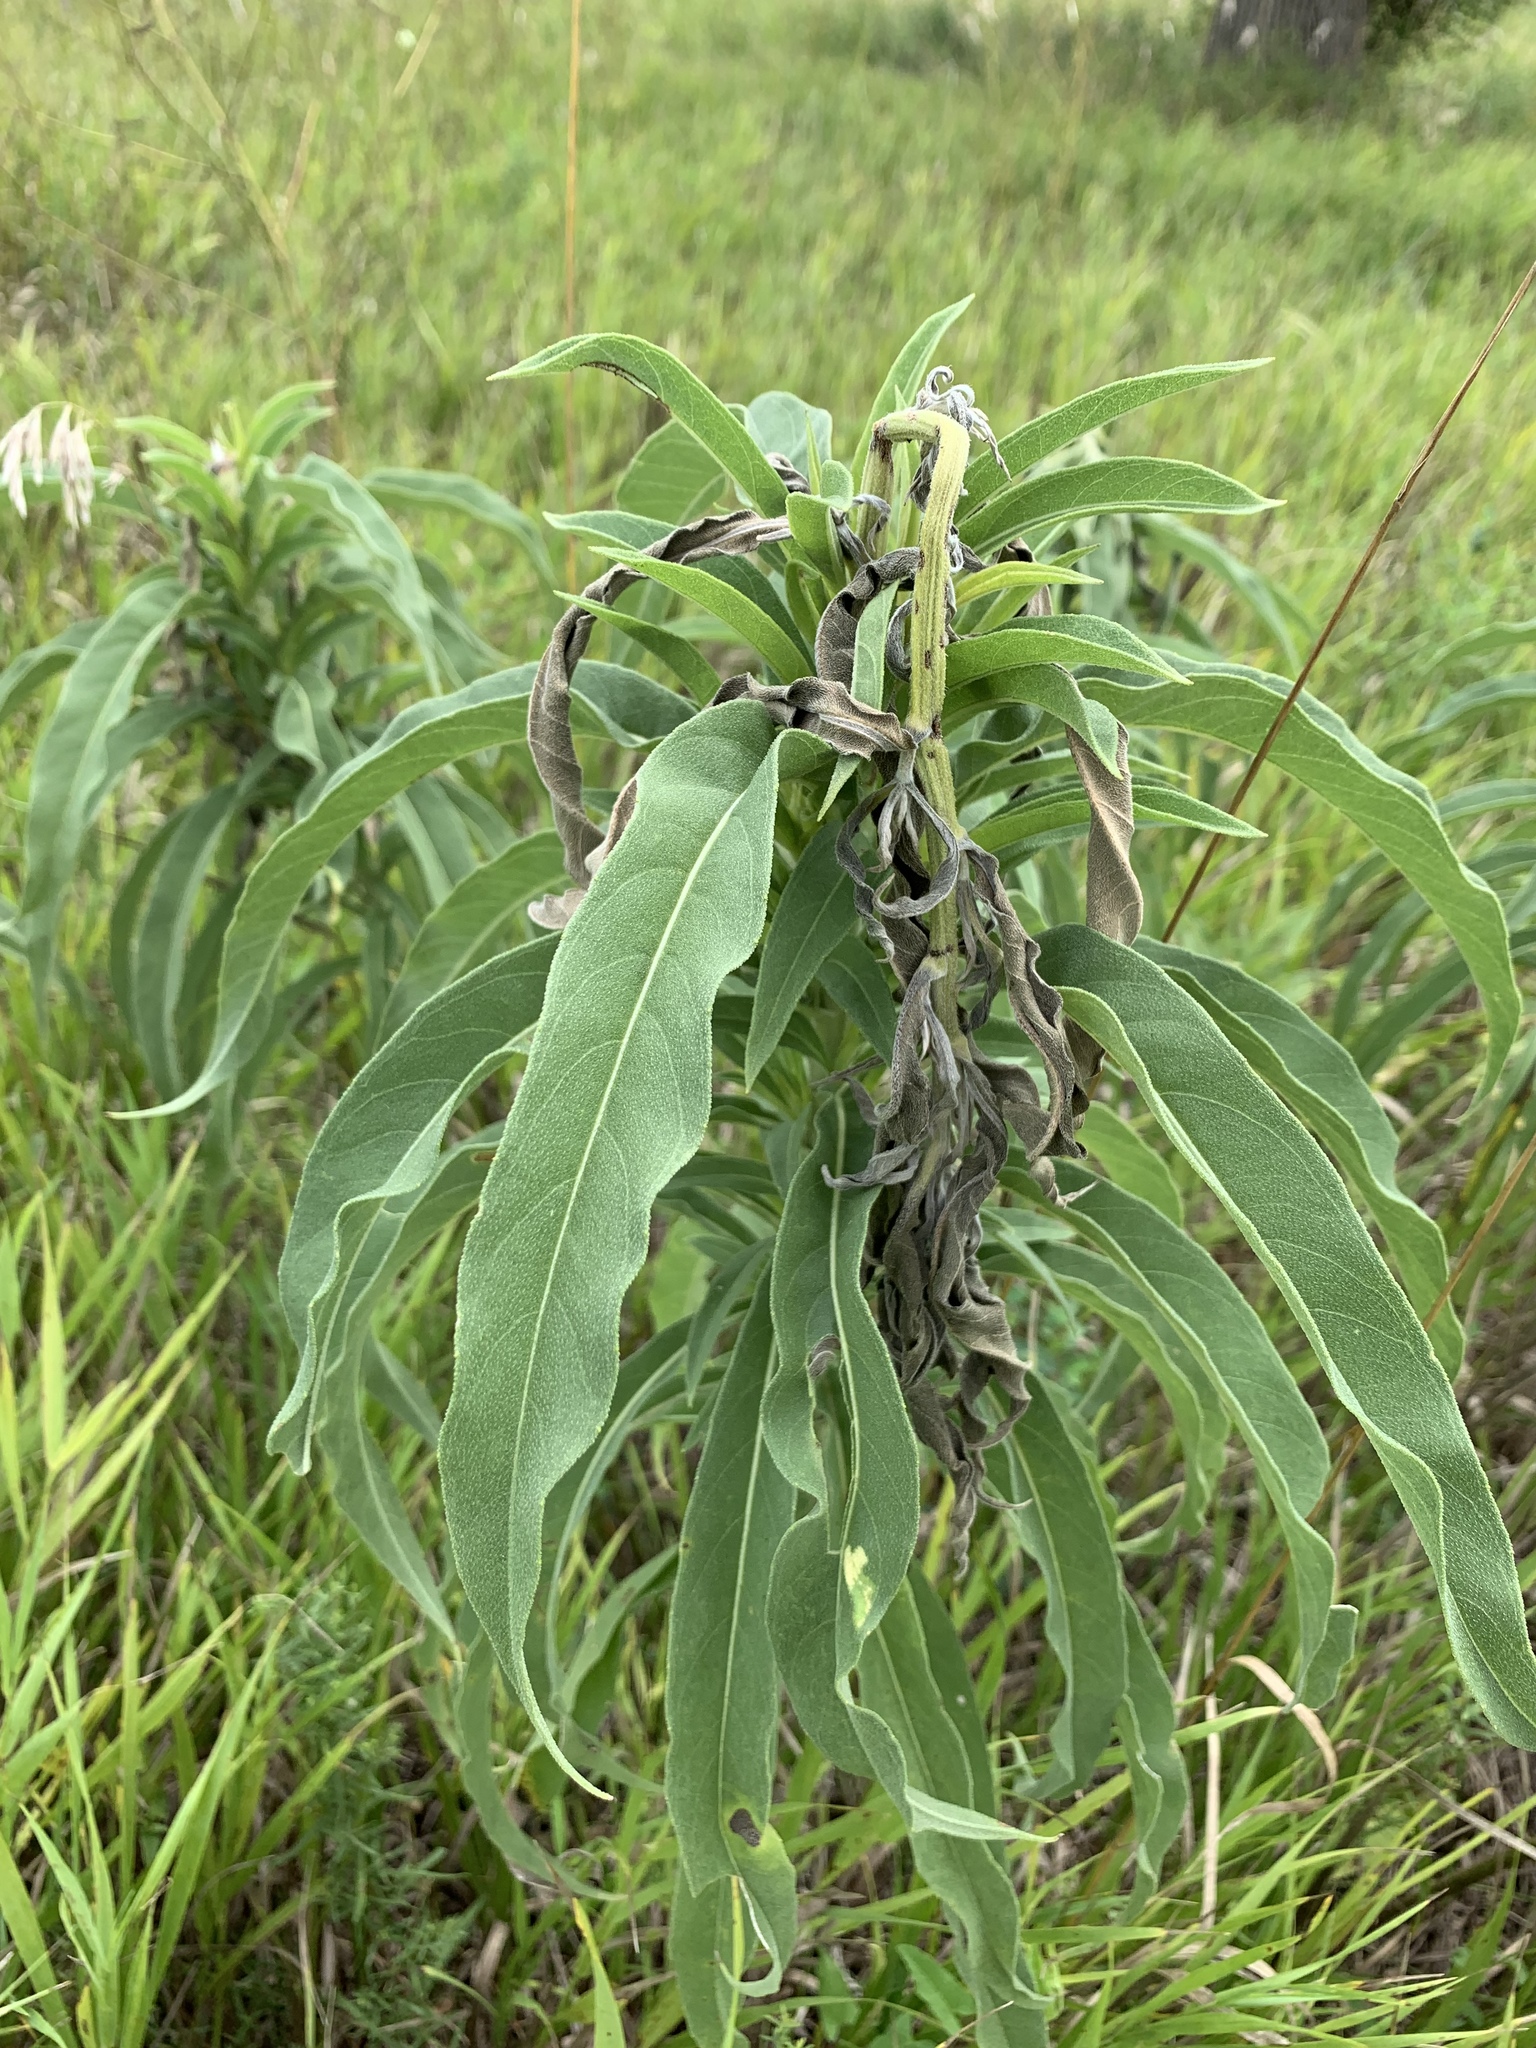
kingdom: Plantae
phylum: Tracheophyta
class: Magnoliopsida
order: Asterales
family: Asteraceae
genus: Helianthus
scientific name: Helianthus maximiliani
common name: Maximilian's sunflower
